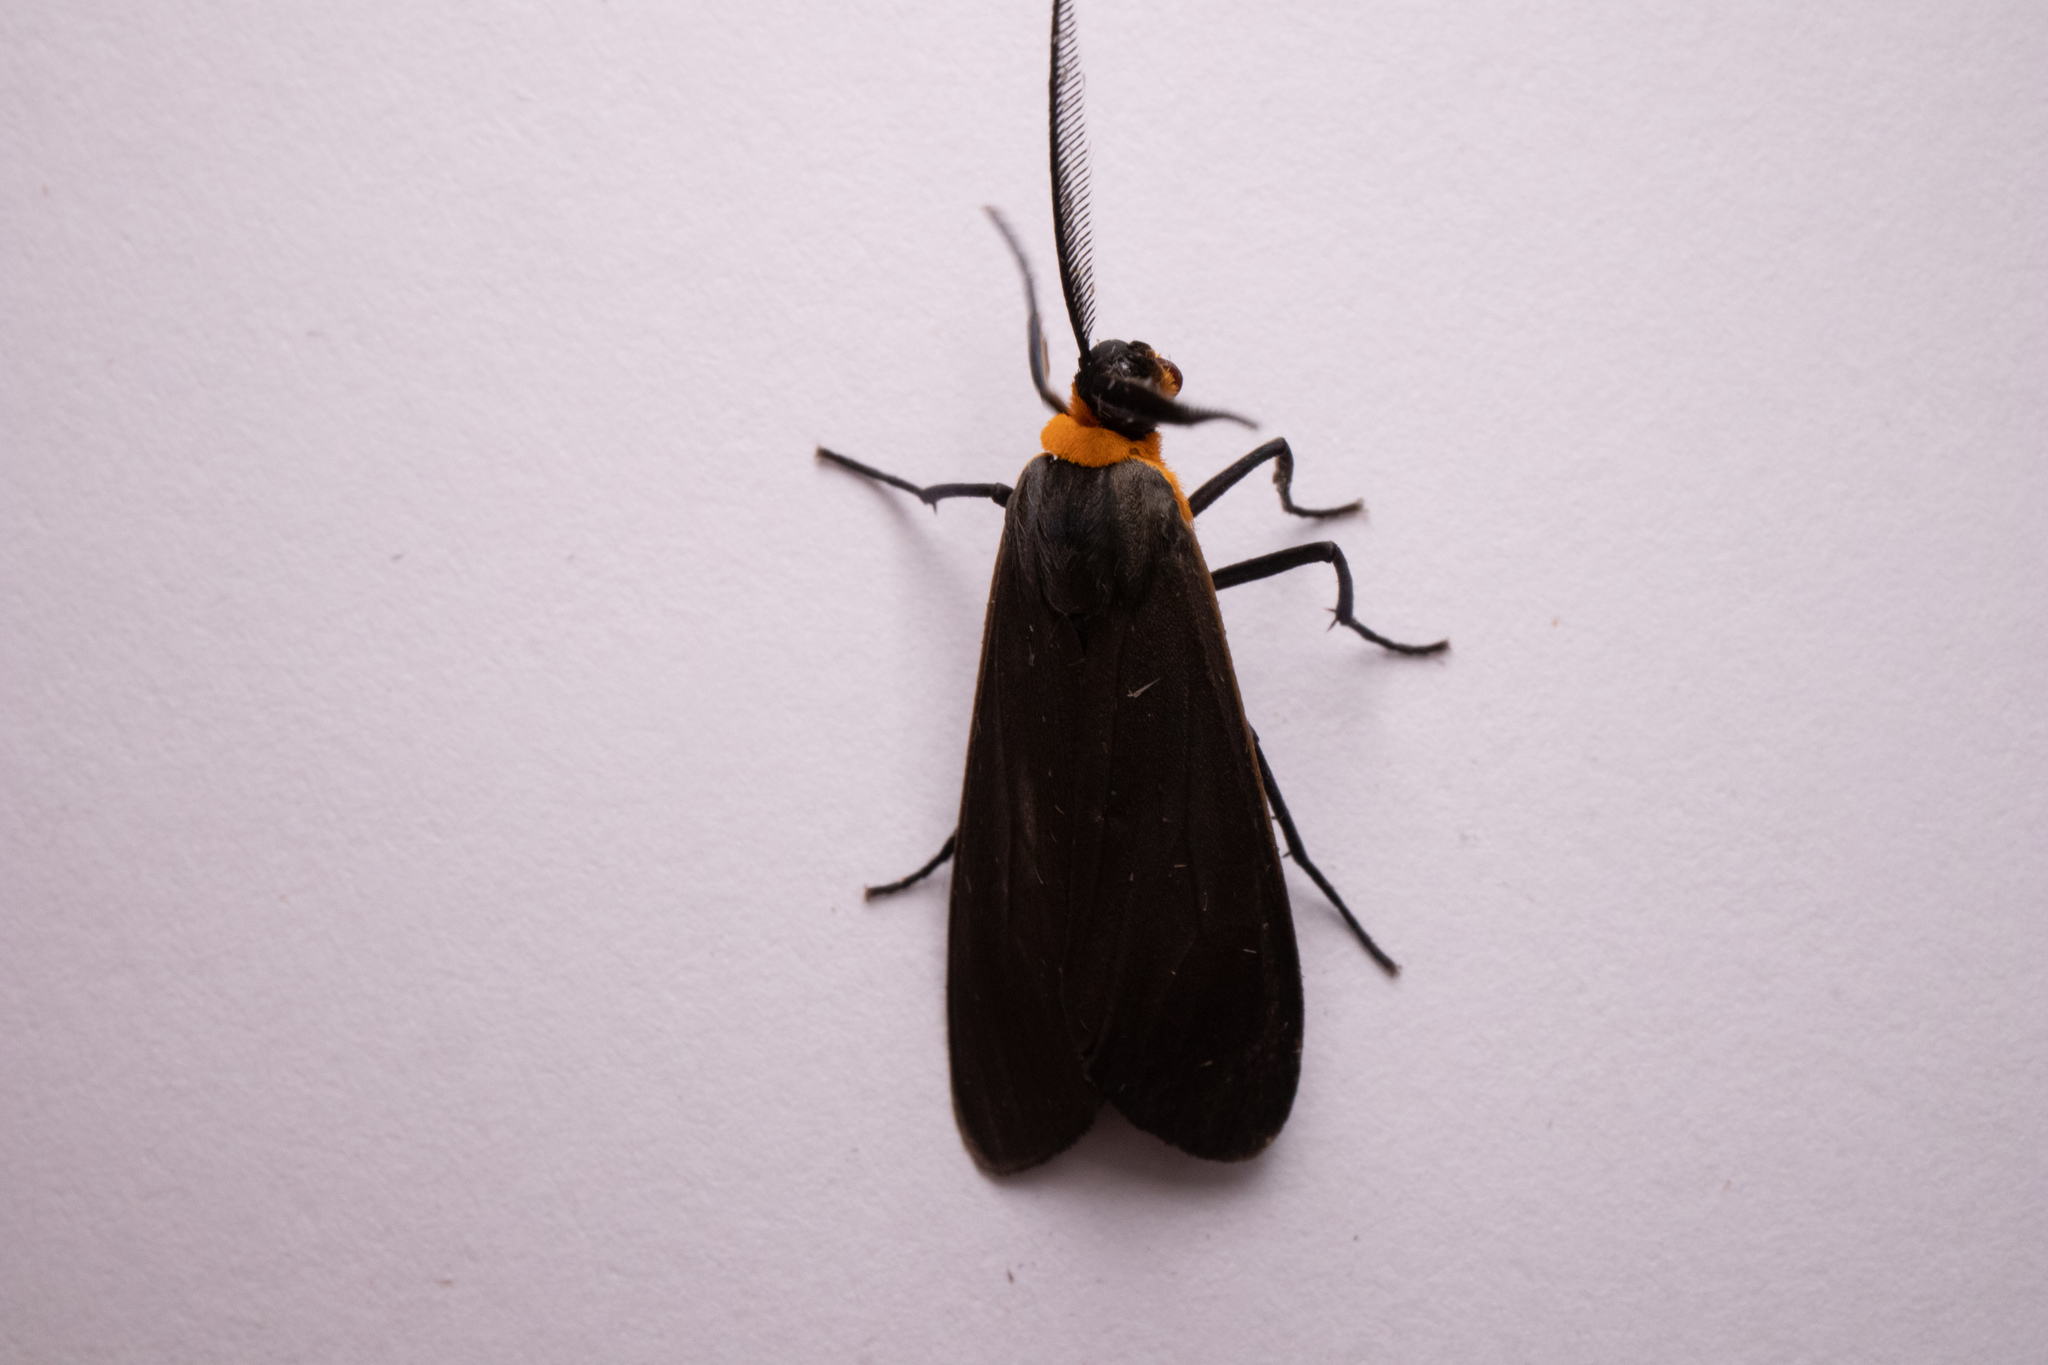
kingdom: Animalia
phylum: Arthropoda
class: Insecta
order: Lepidoptera
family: Erebidae
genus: Cisseps
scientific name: Cisseps fulvicollis
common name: Yellow-collared scape moth
